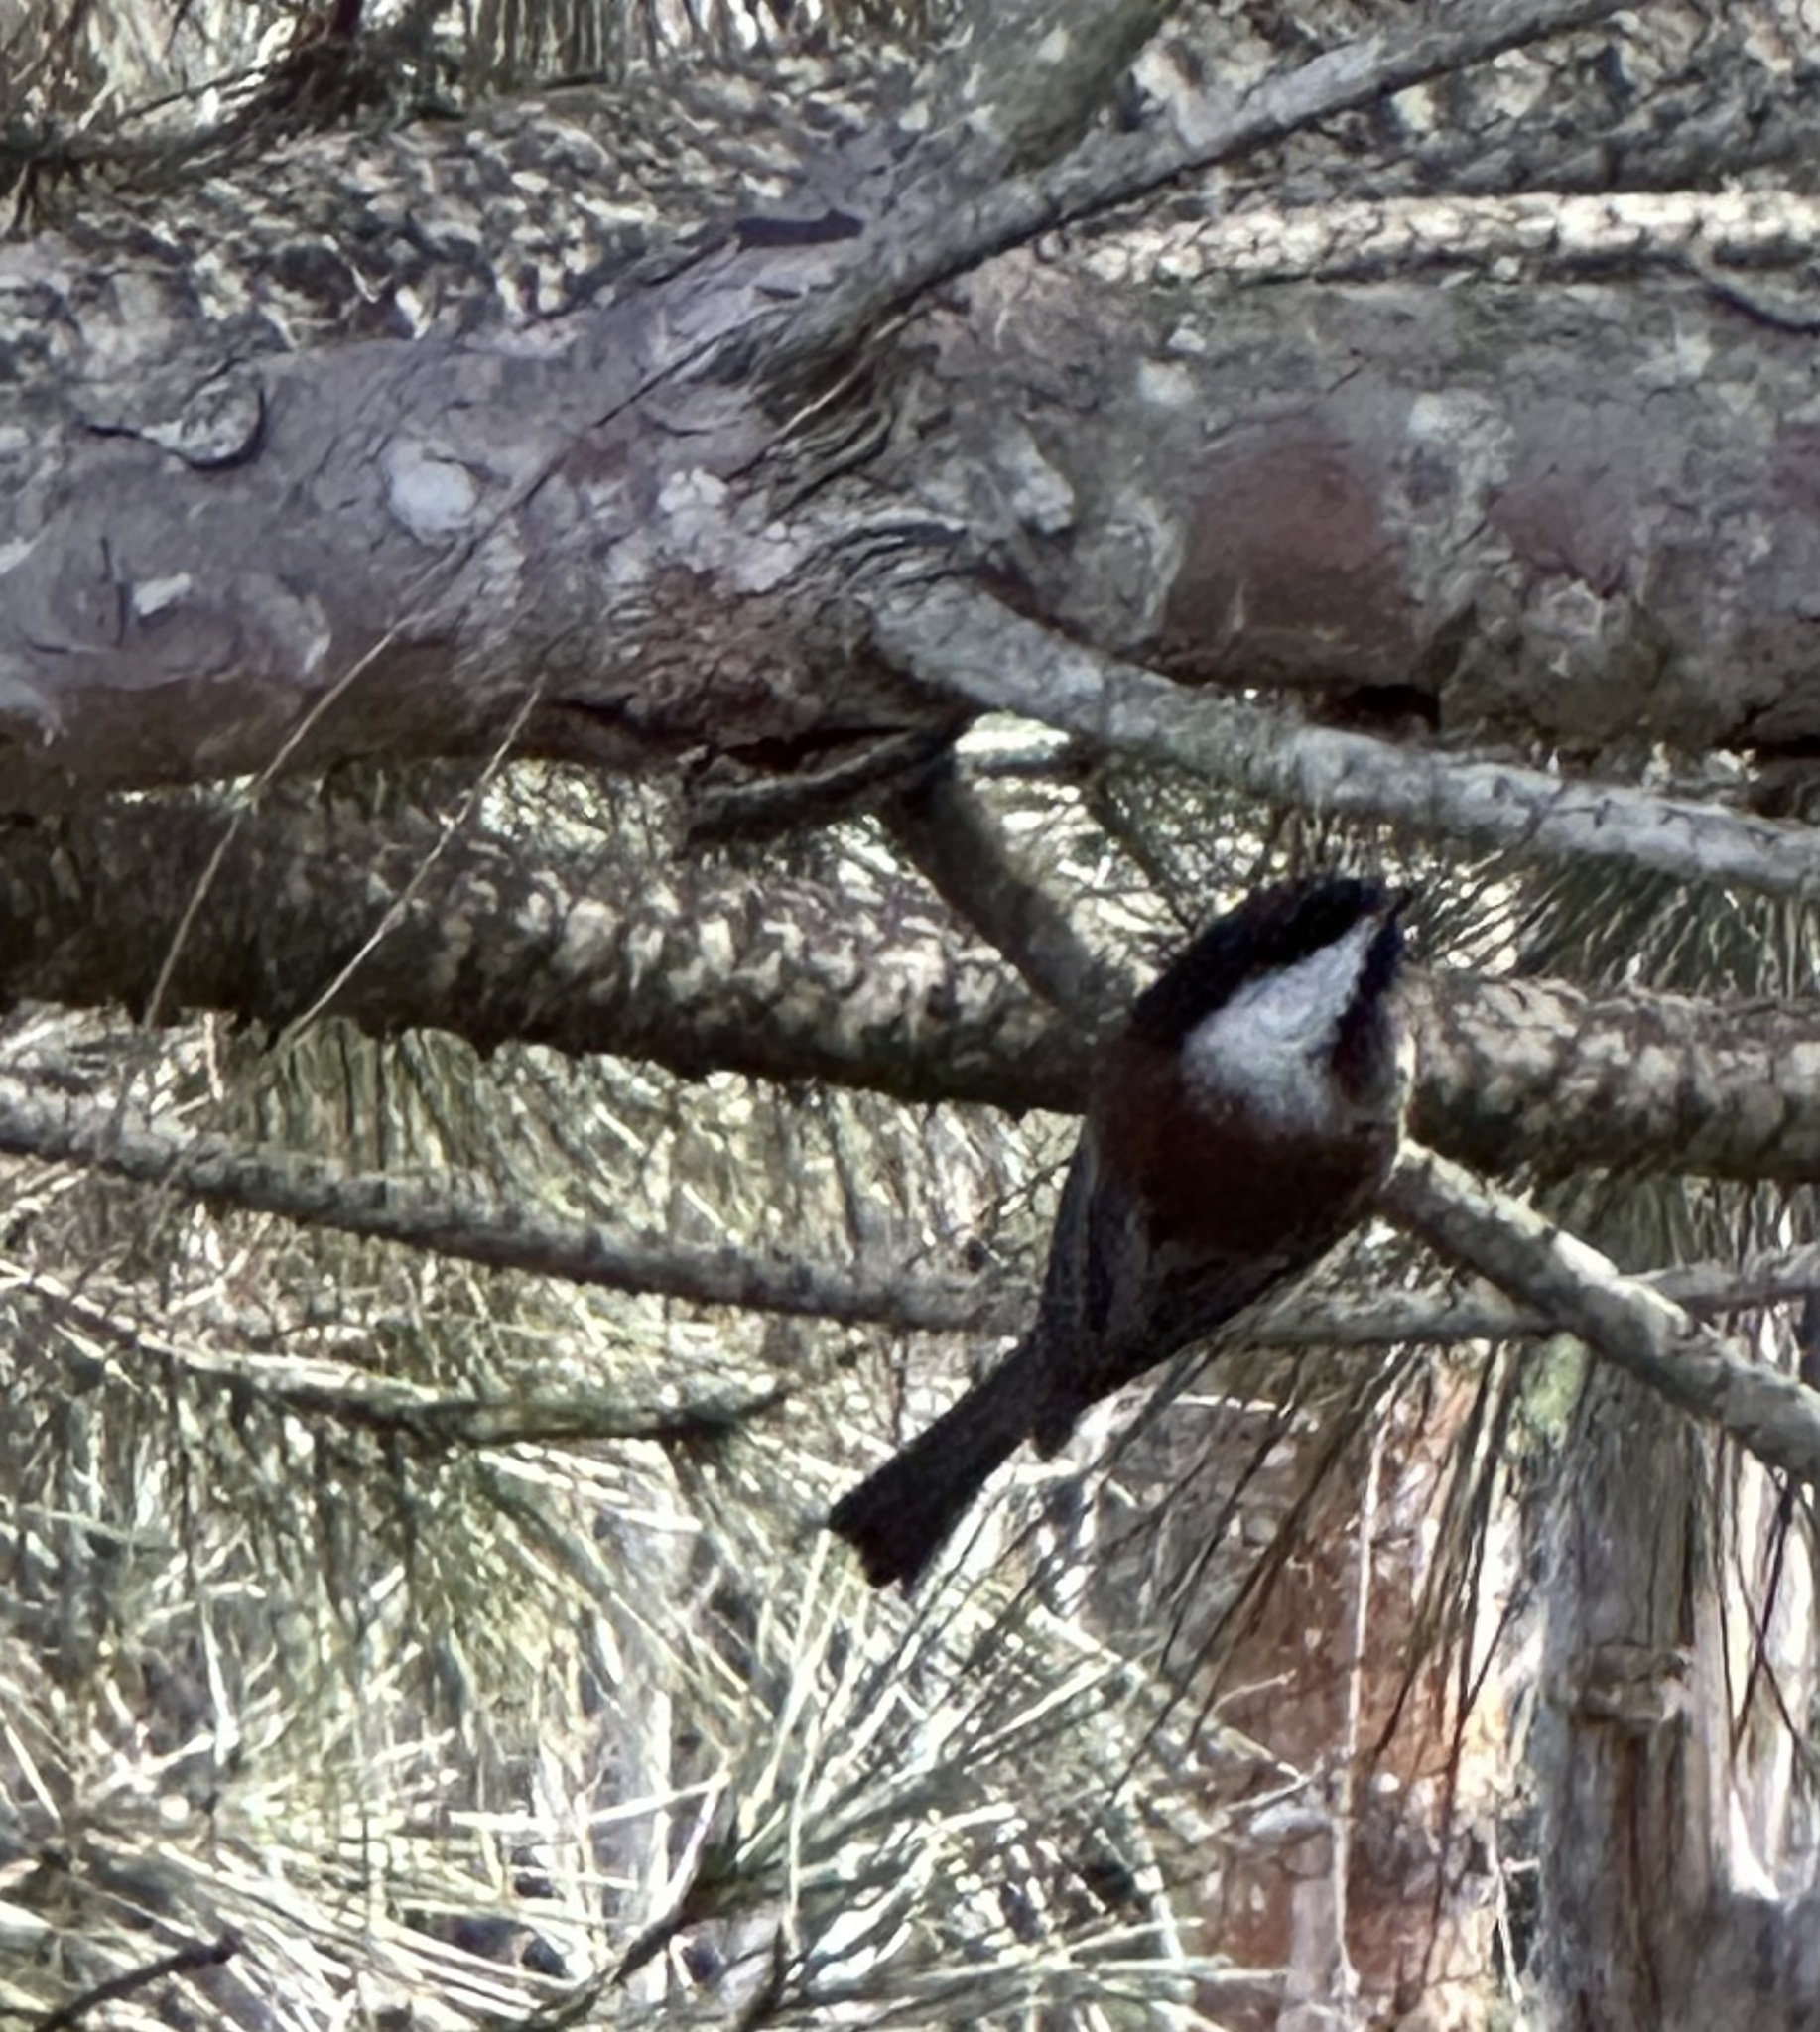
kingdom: Animalia
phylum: Chordata
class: Aves
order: Passeriformes
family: Paridae
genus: Poecile
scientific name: Poecile rufescens
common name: Chestnut-backed chickadee
